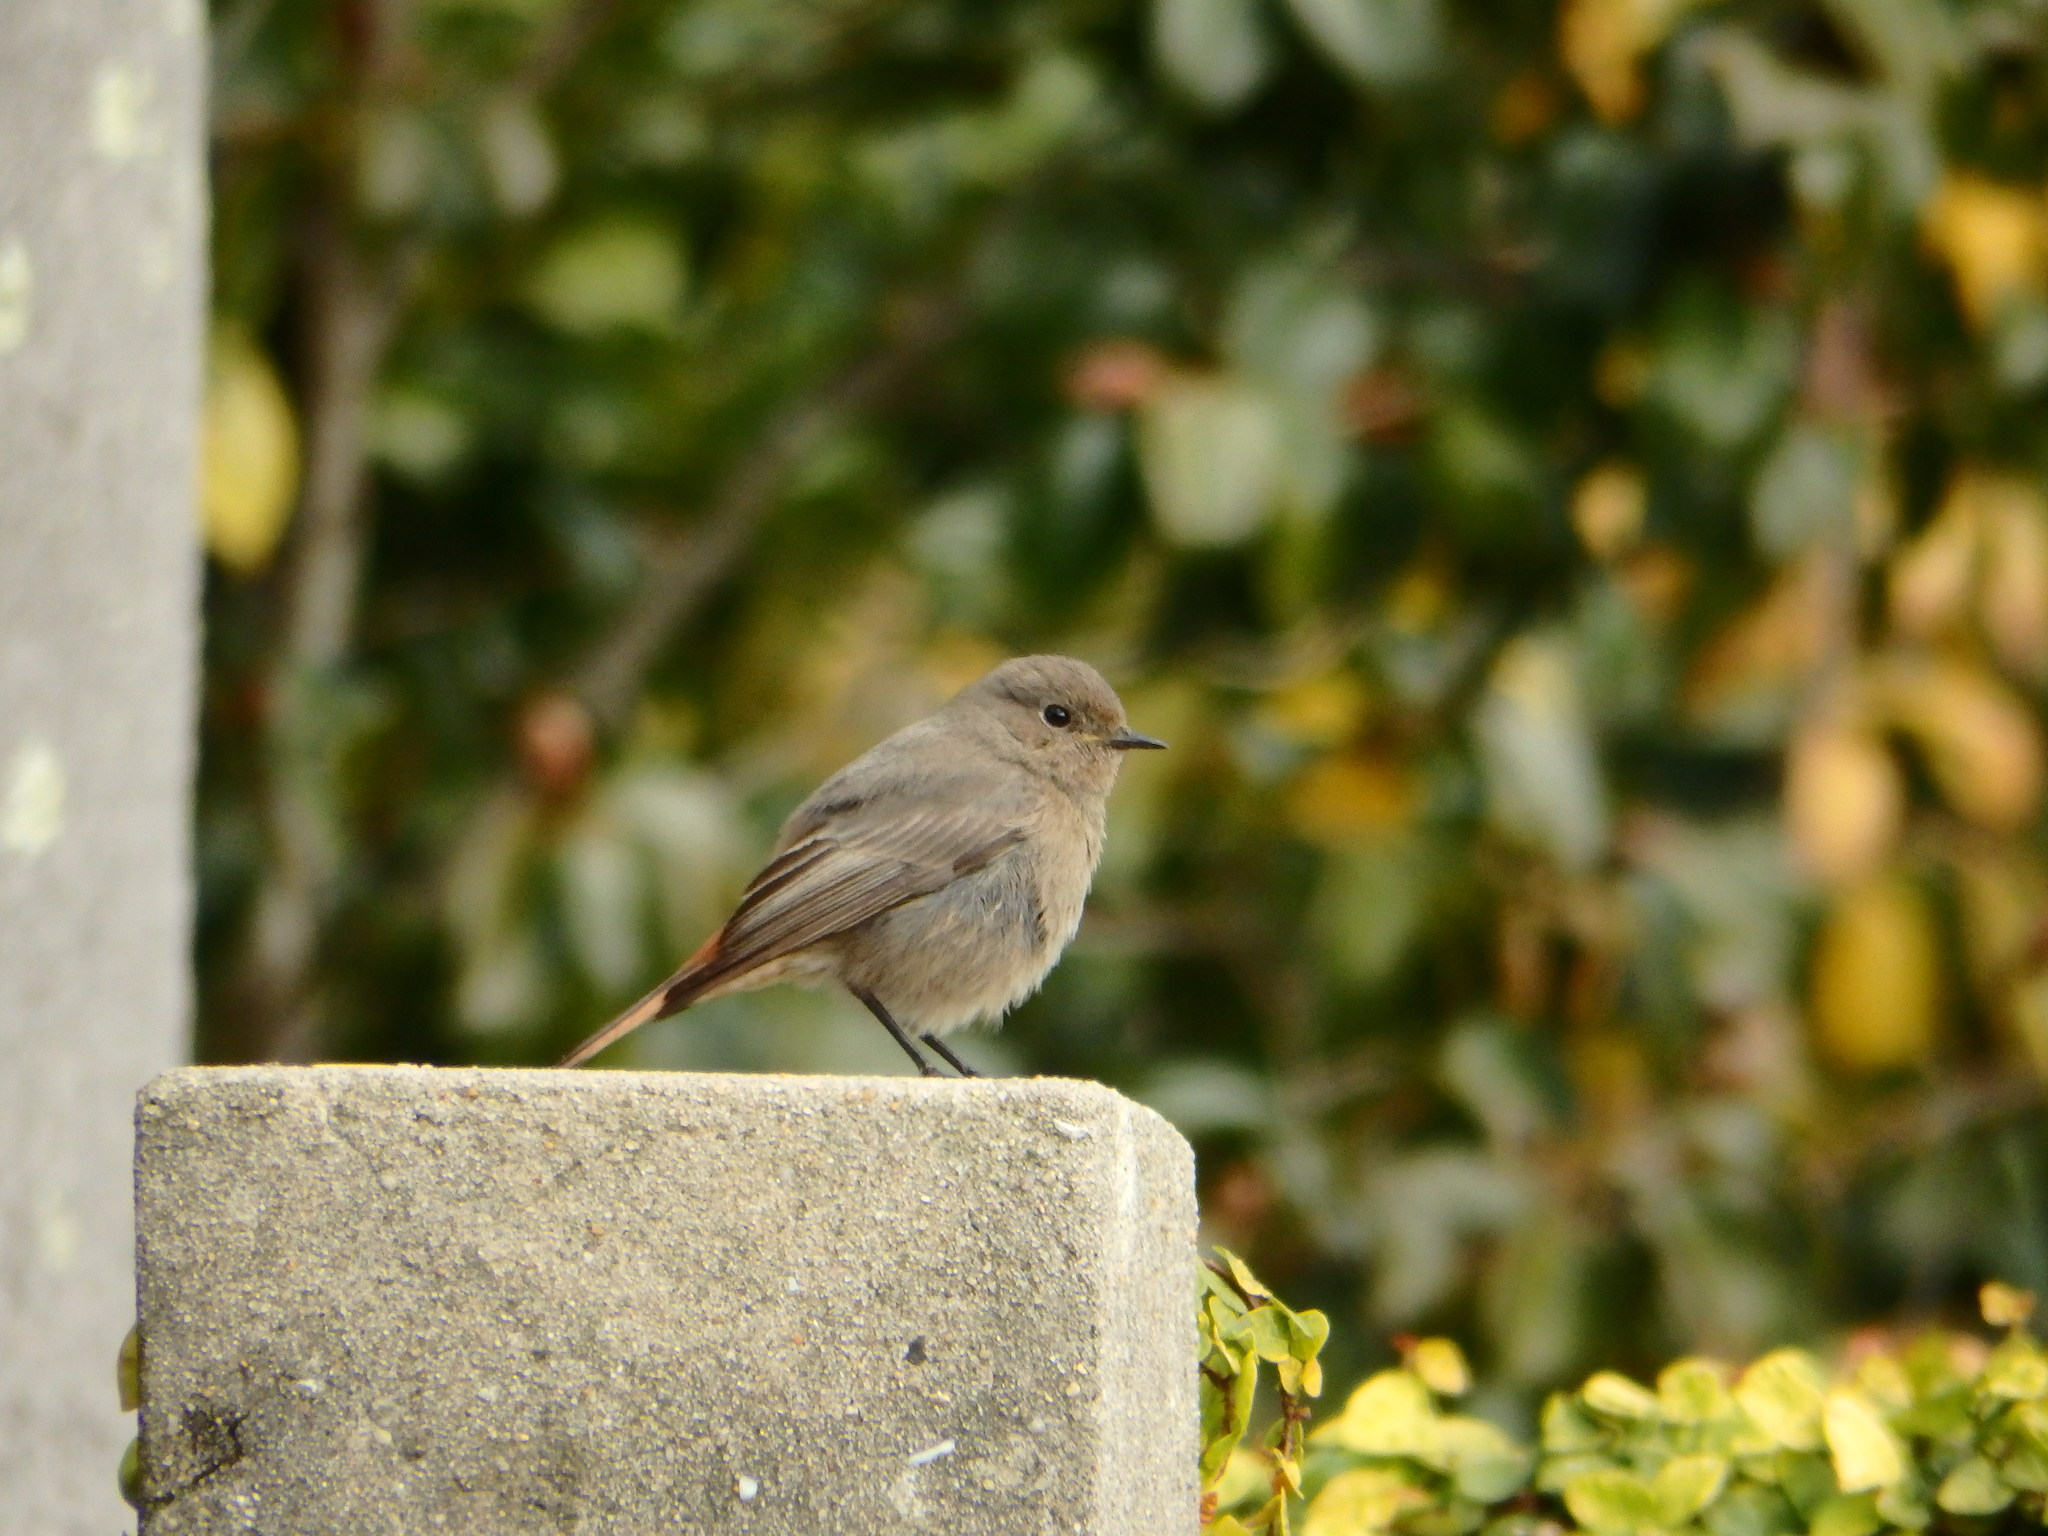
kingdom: Animalia
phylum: Chordata
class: Aves
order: Passeriformes
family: Muscicapidae
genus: Phoenicurus
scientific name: Phoenicurus ochruros
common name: Black redstart
